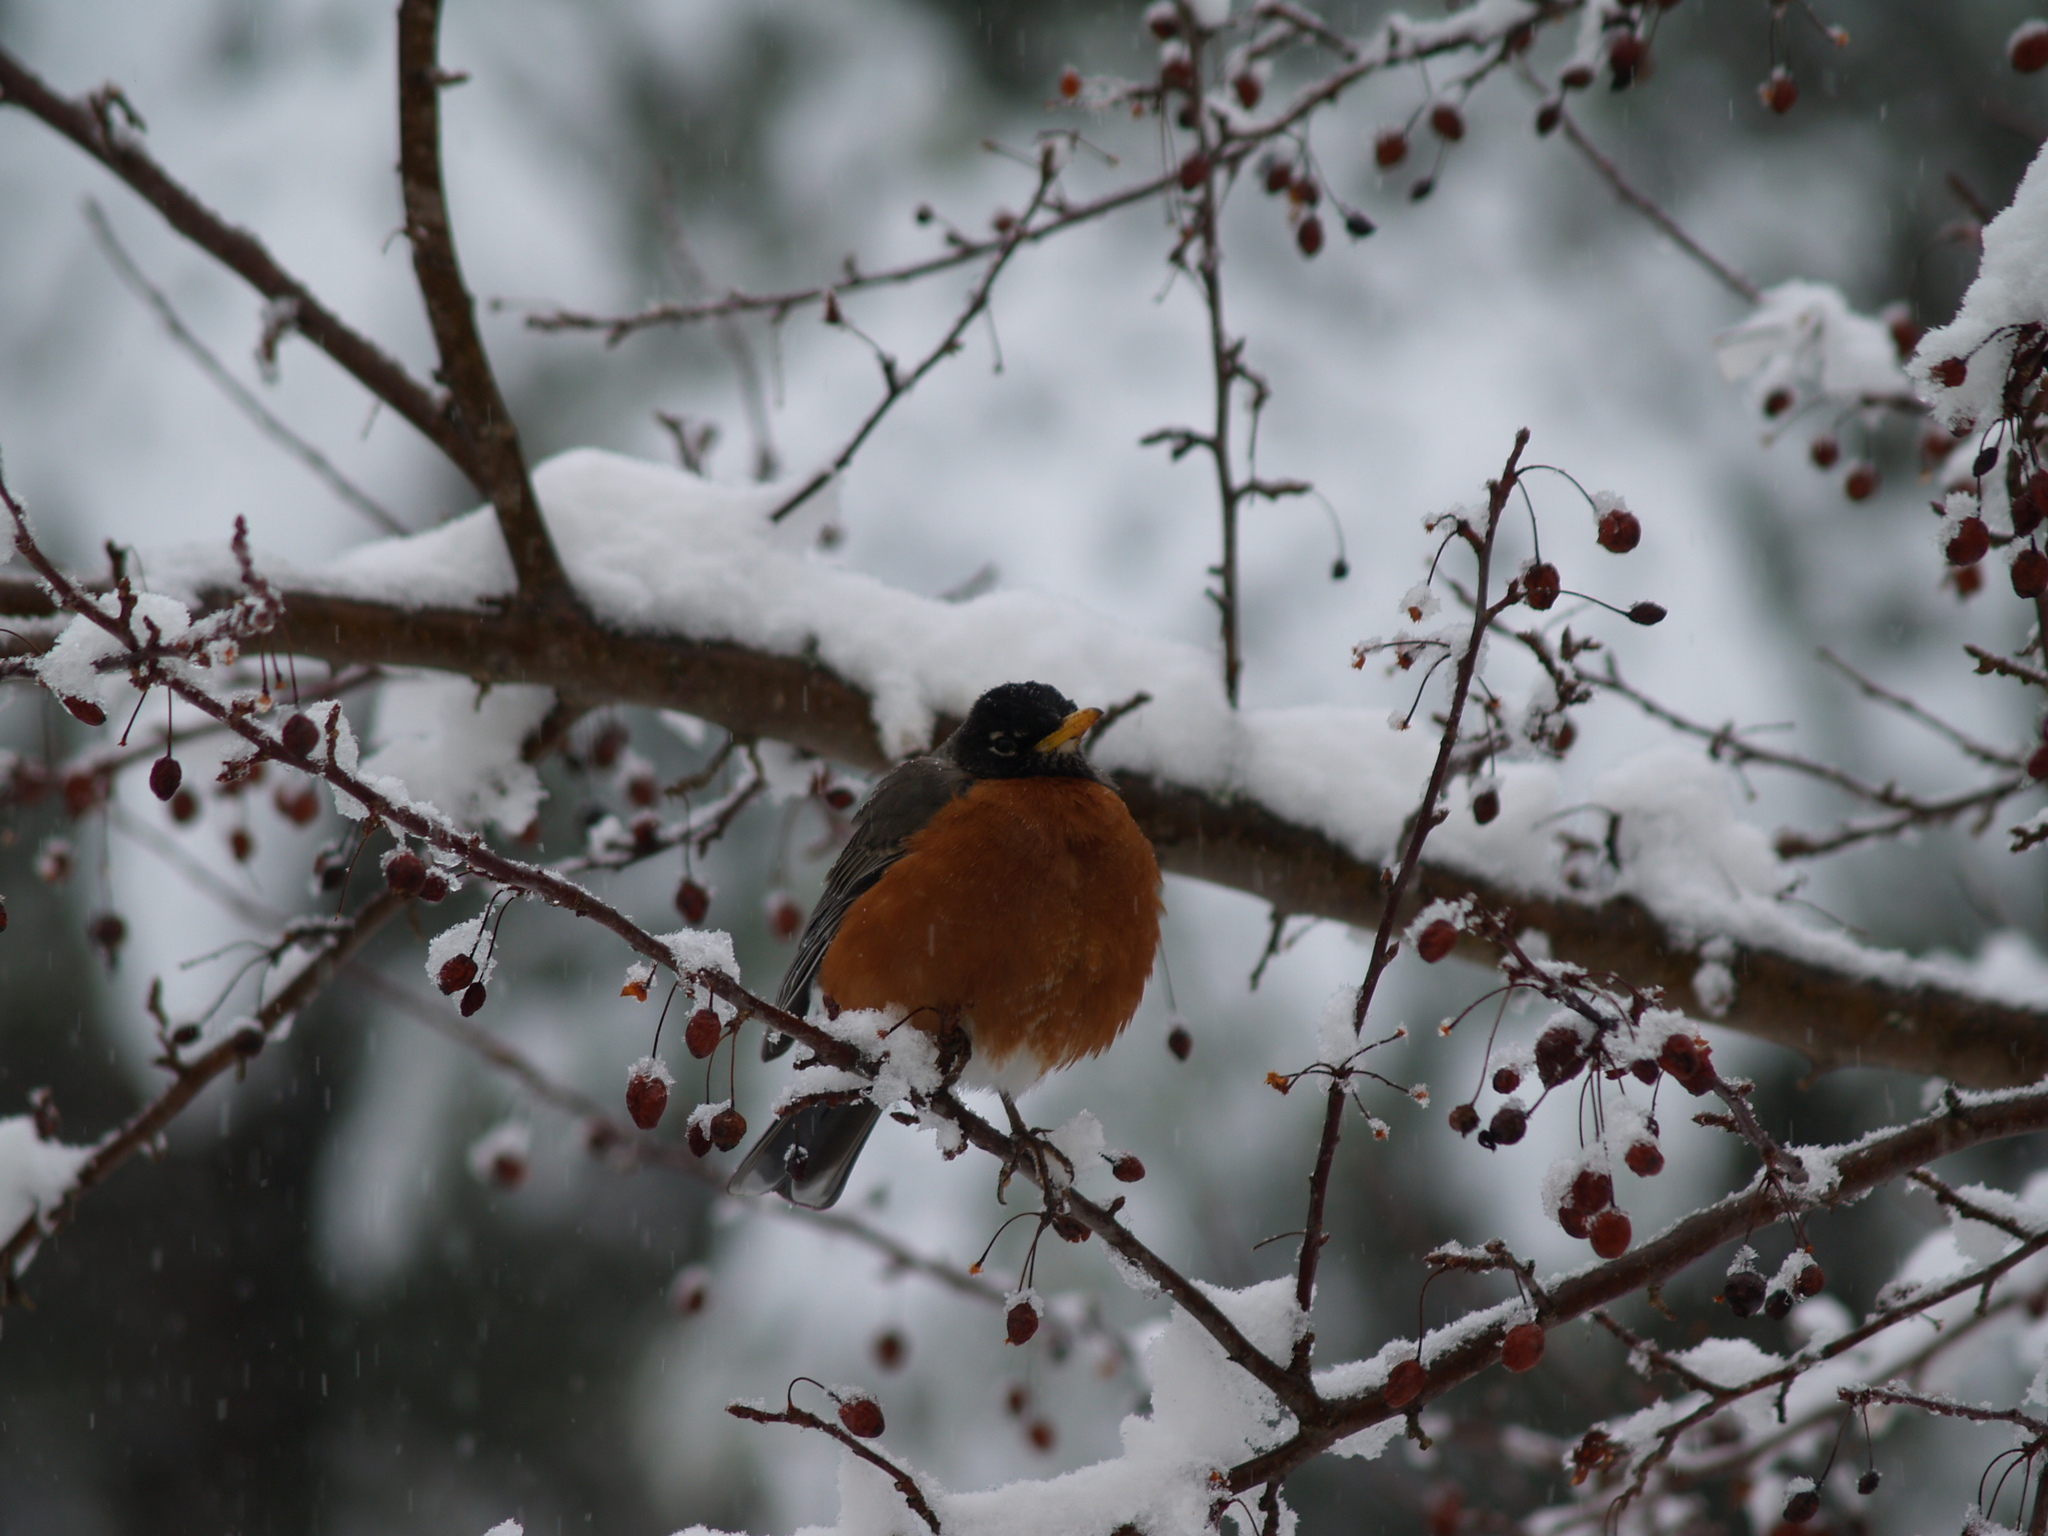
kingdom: Animalia
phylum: Chordata
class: Aves
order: Passeriformes
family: Turdidae
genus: Turdus
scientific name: Turdus migratorius
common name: American robin
